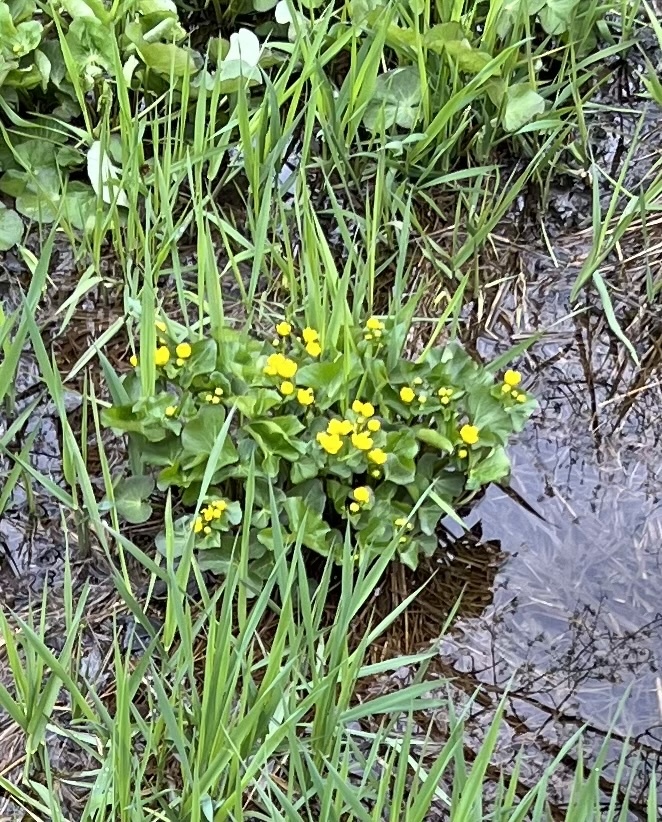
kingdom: Plantae
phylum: Tracheophyta
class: Magnoliopsida
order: Ranunculales
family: Ranunculaceae
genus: Caltha
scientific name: Caltha palustris
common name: Marsh marigold
